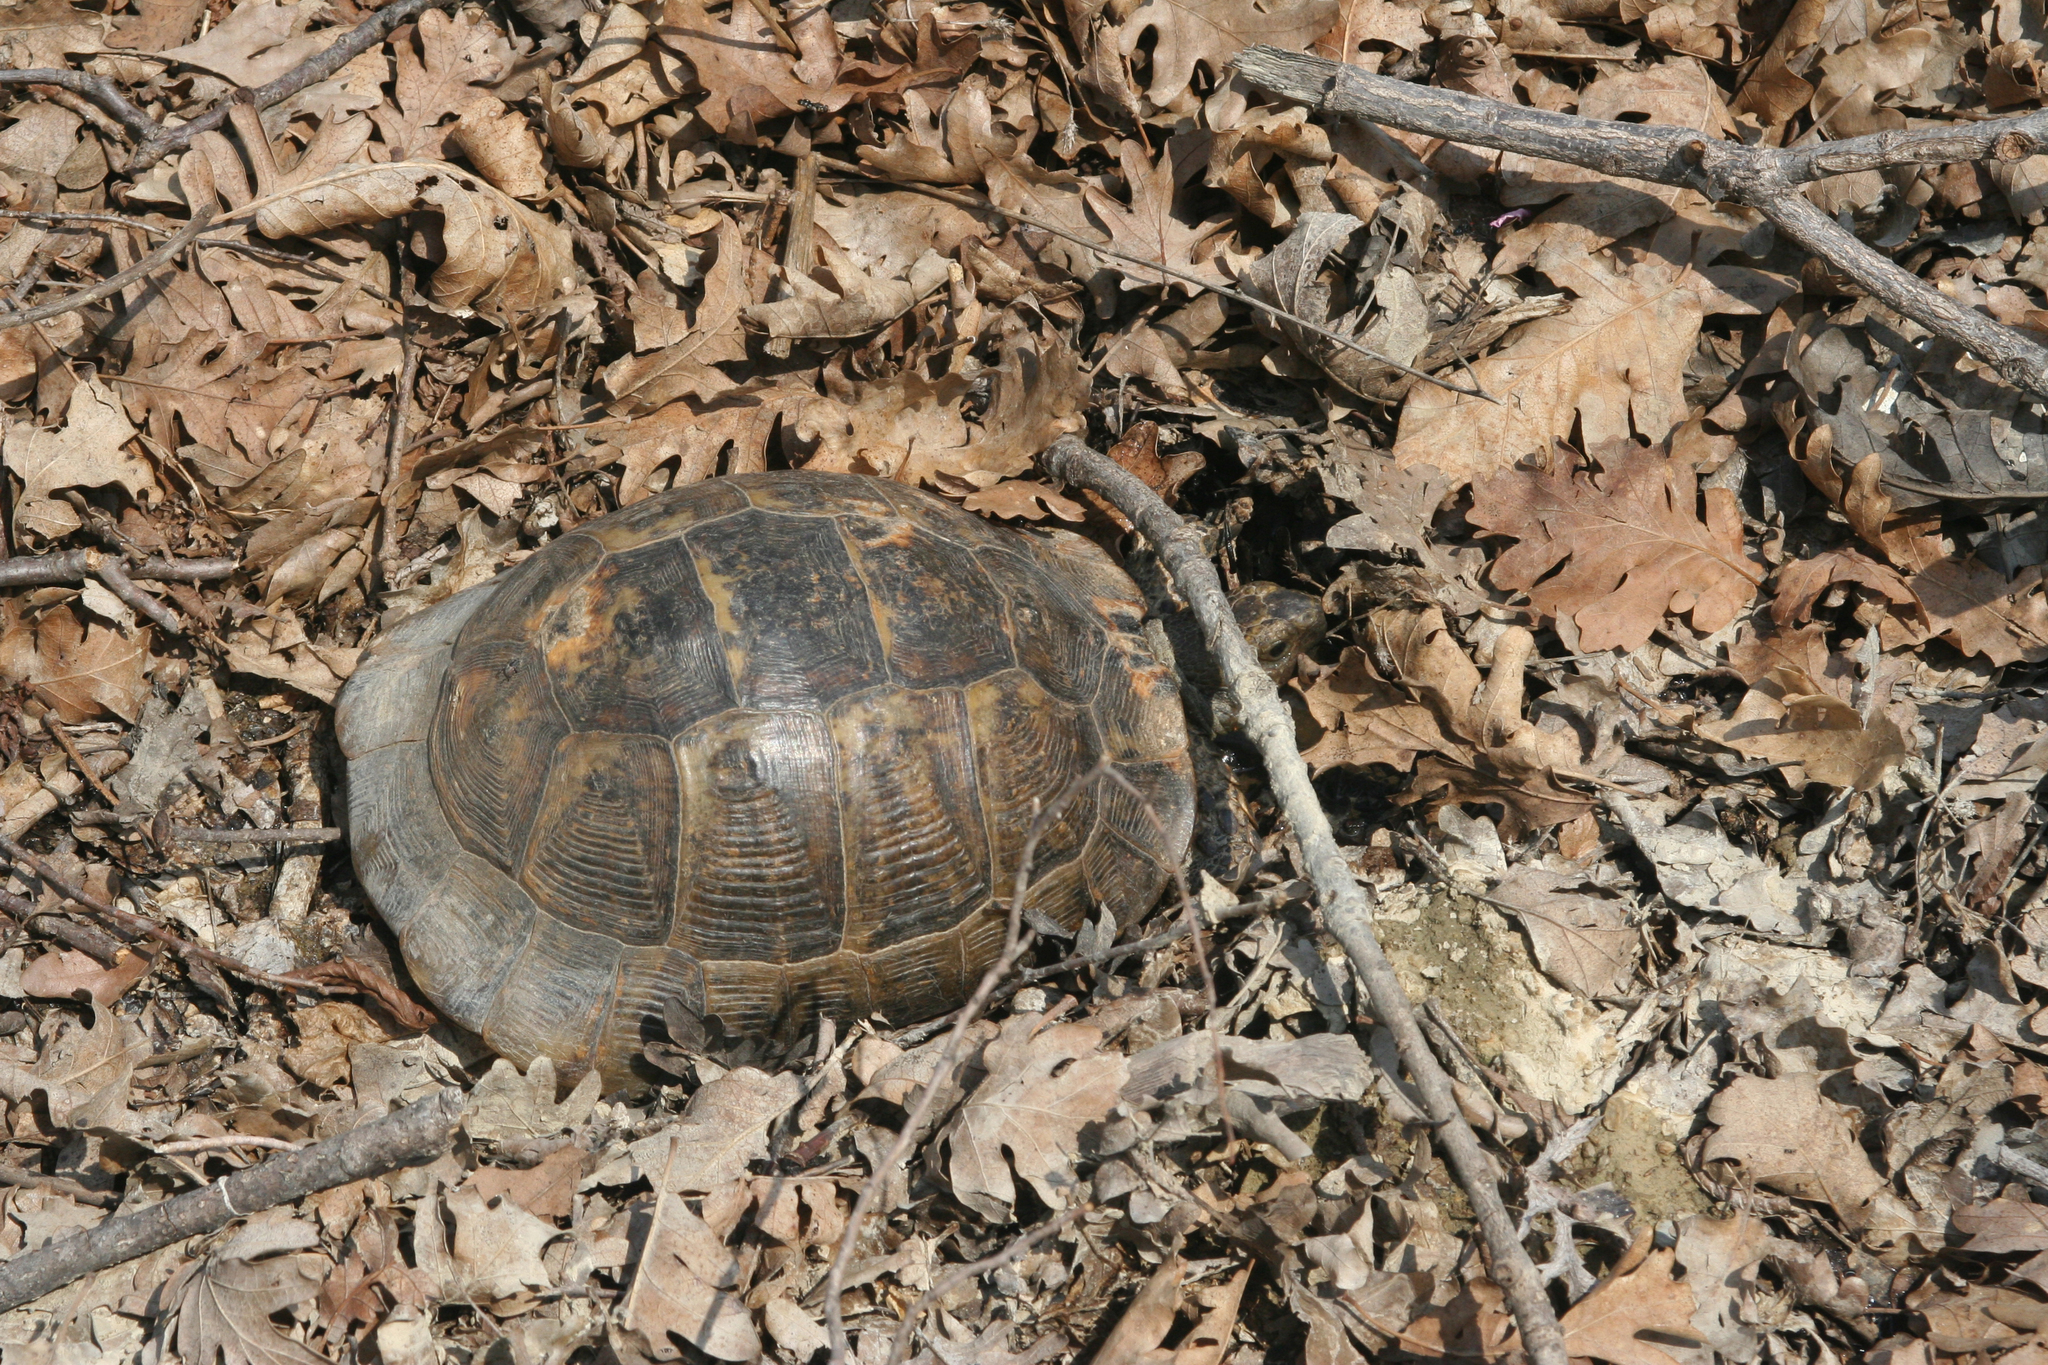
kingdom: Animalia
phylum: Chordata
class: Testudines
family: Testudinidae
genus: Testudo
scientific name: Testudo graeca
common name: Common tortoise
